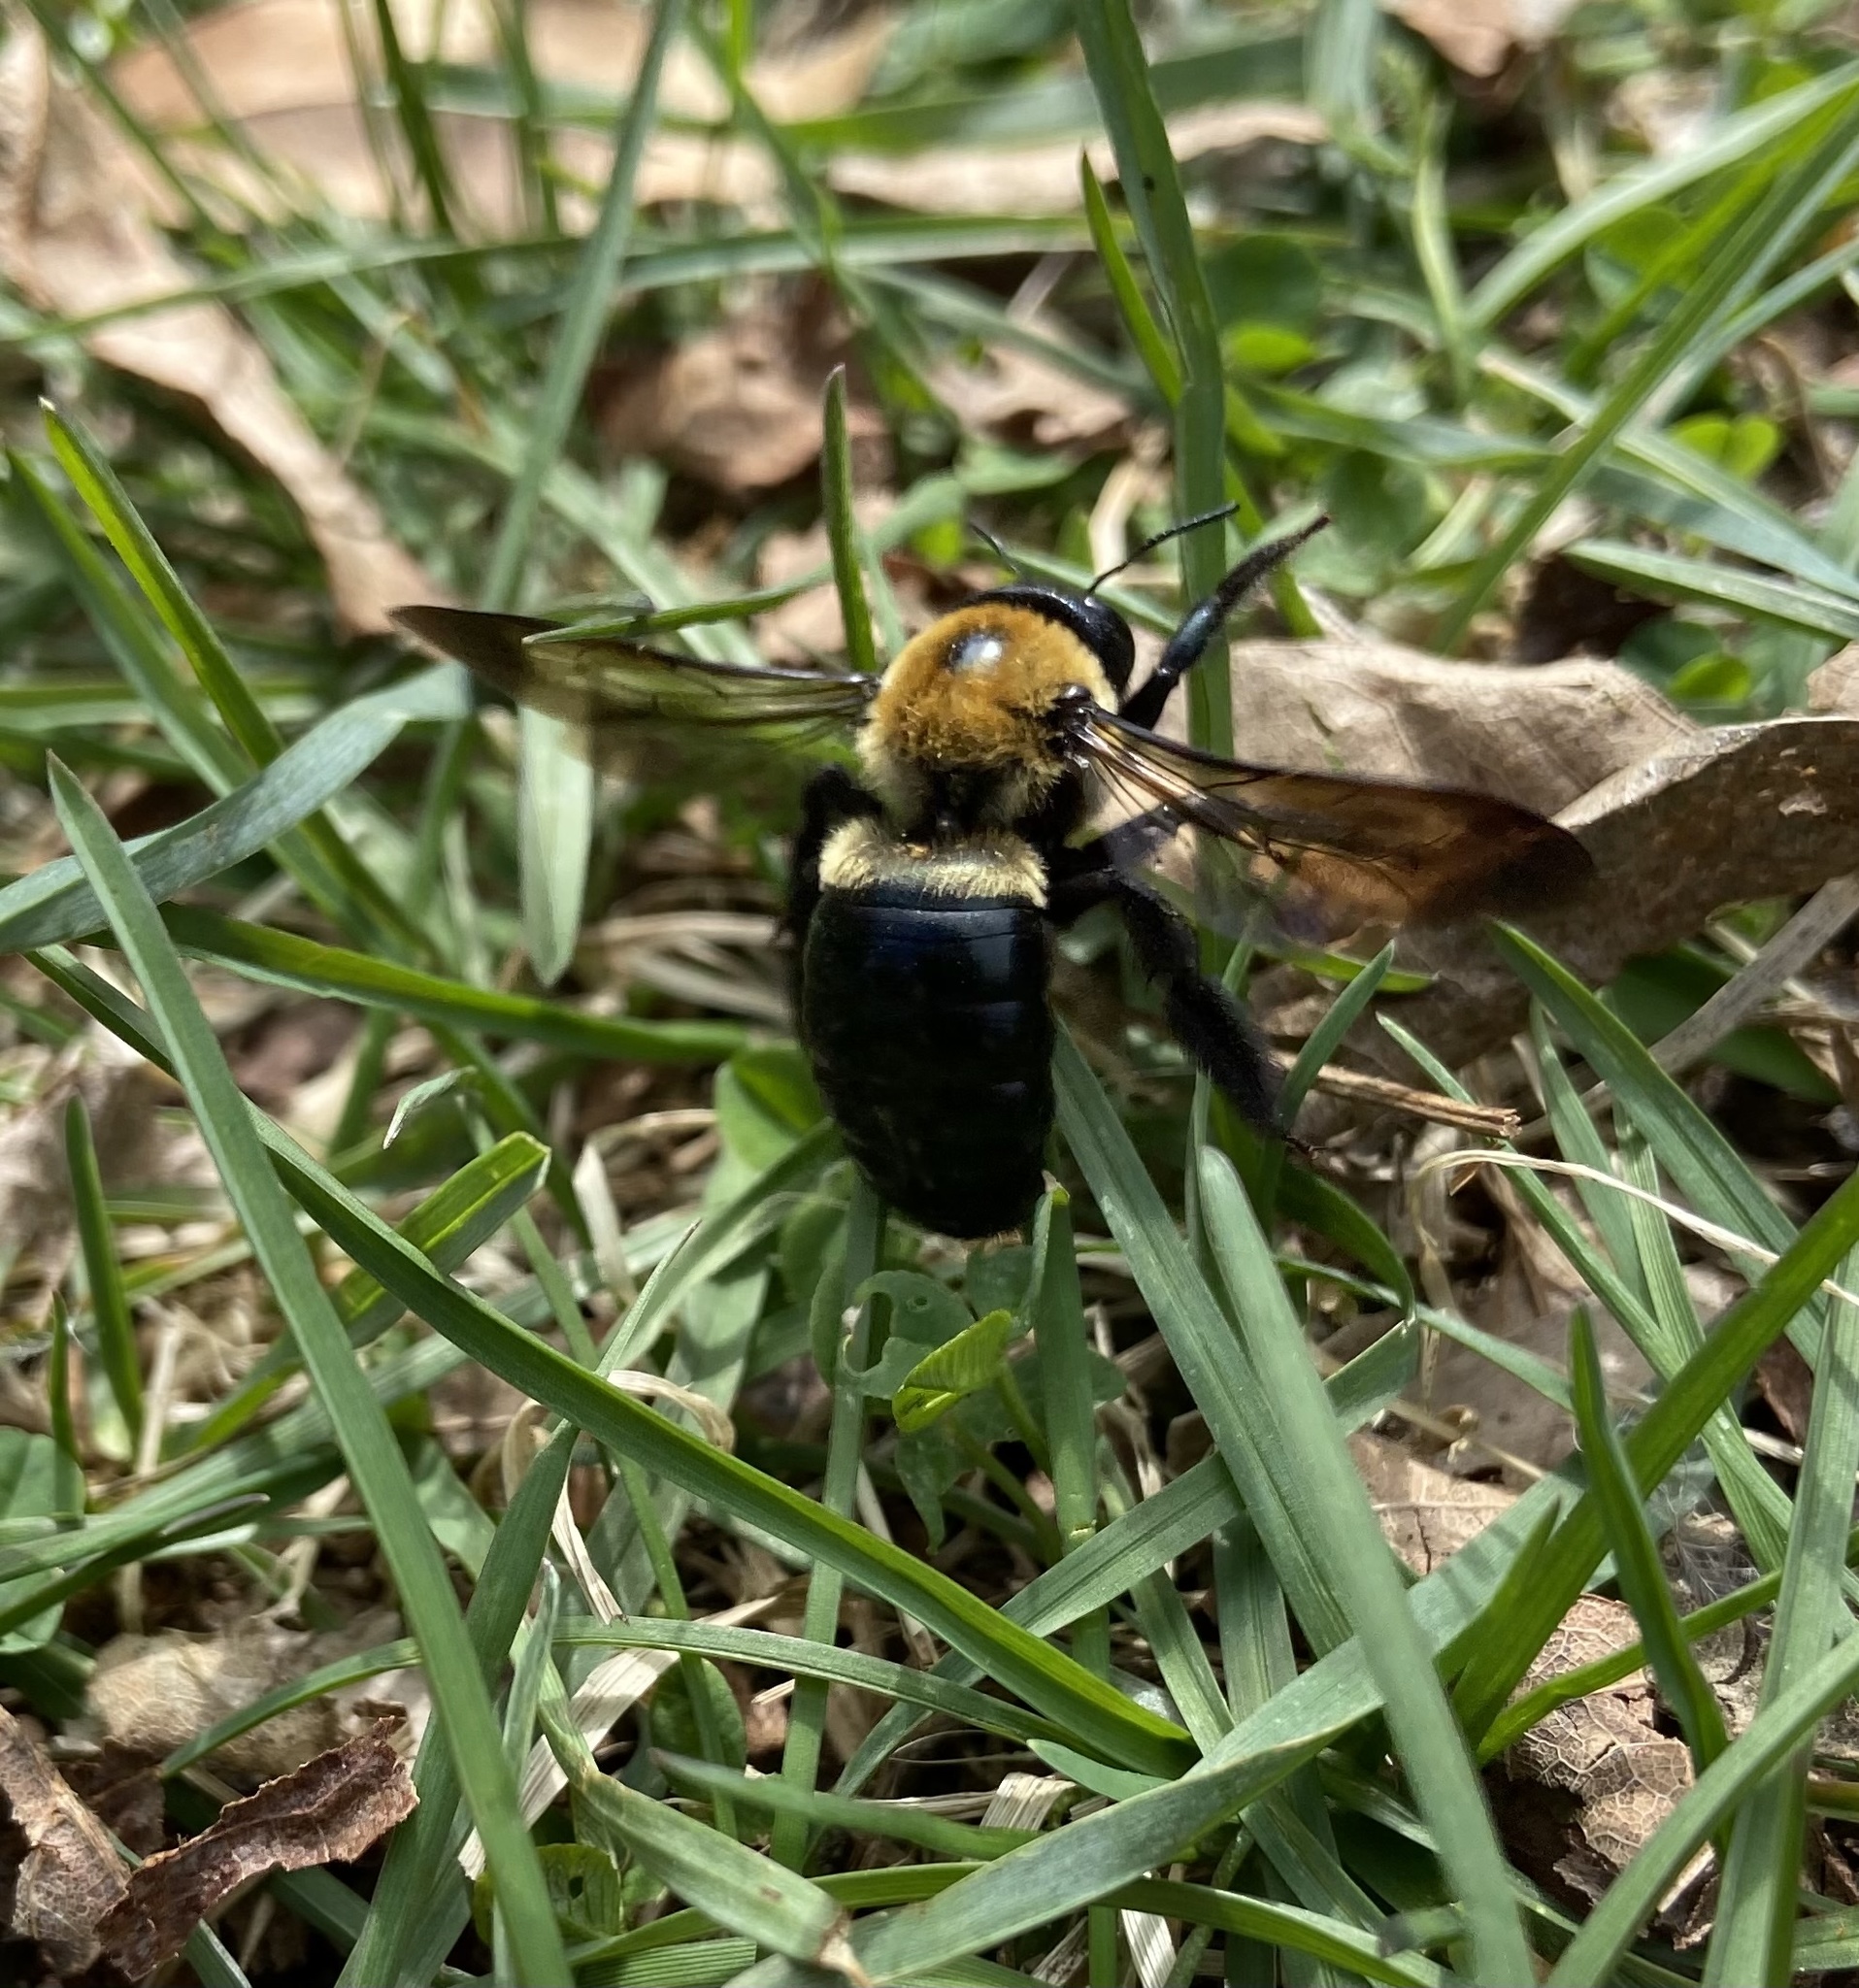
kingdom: Animalia
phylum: Arthropoda
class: Insecta
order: Hymenoptera
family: Apidae
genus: Xylocopa
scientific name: Xylocopa virginica
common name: Carpenter bee
